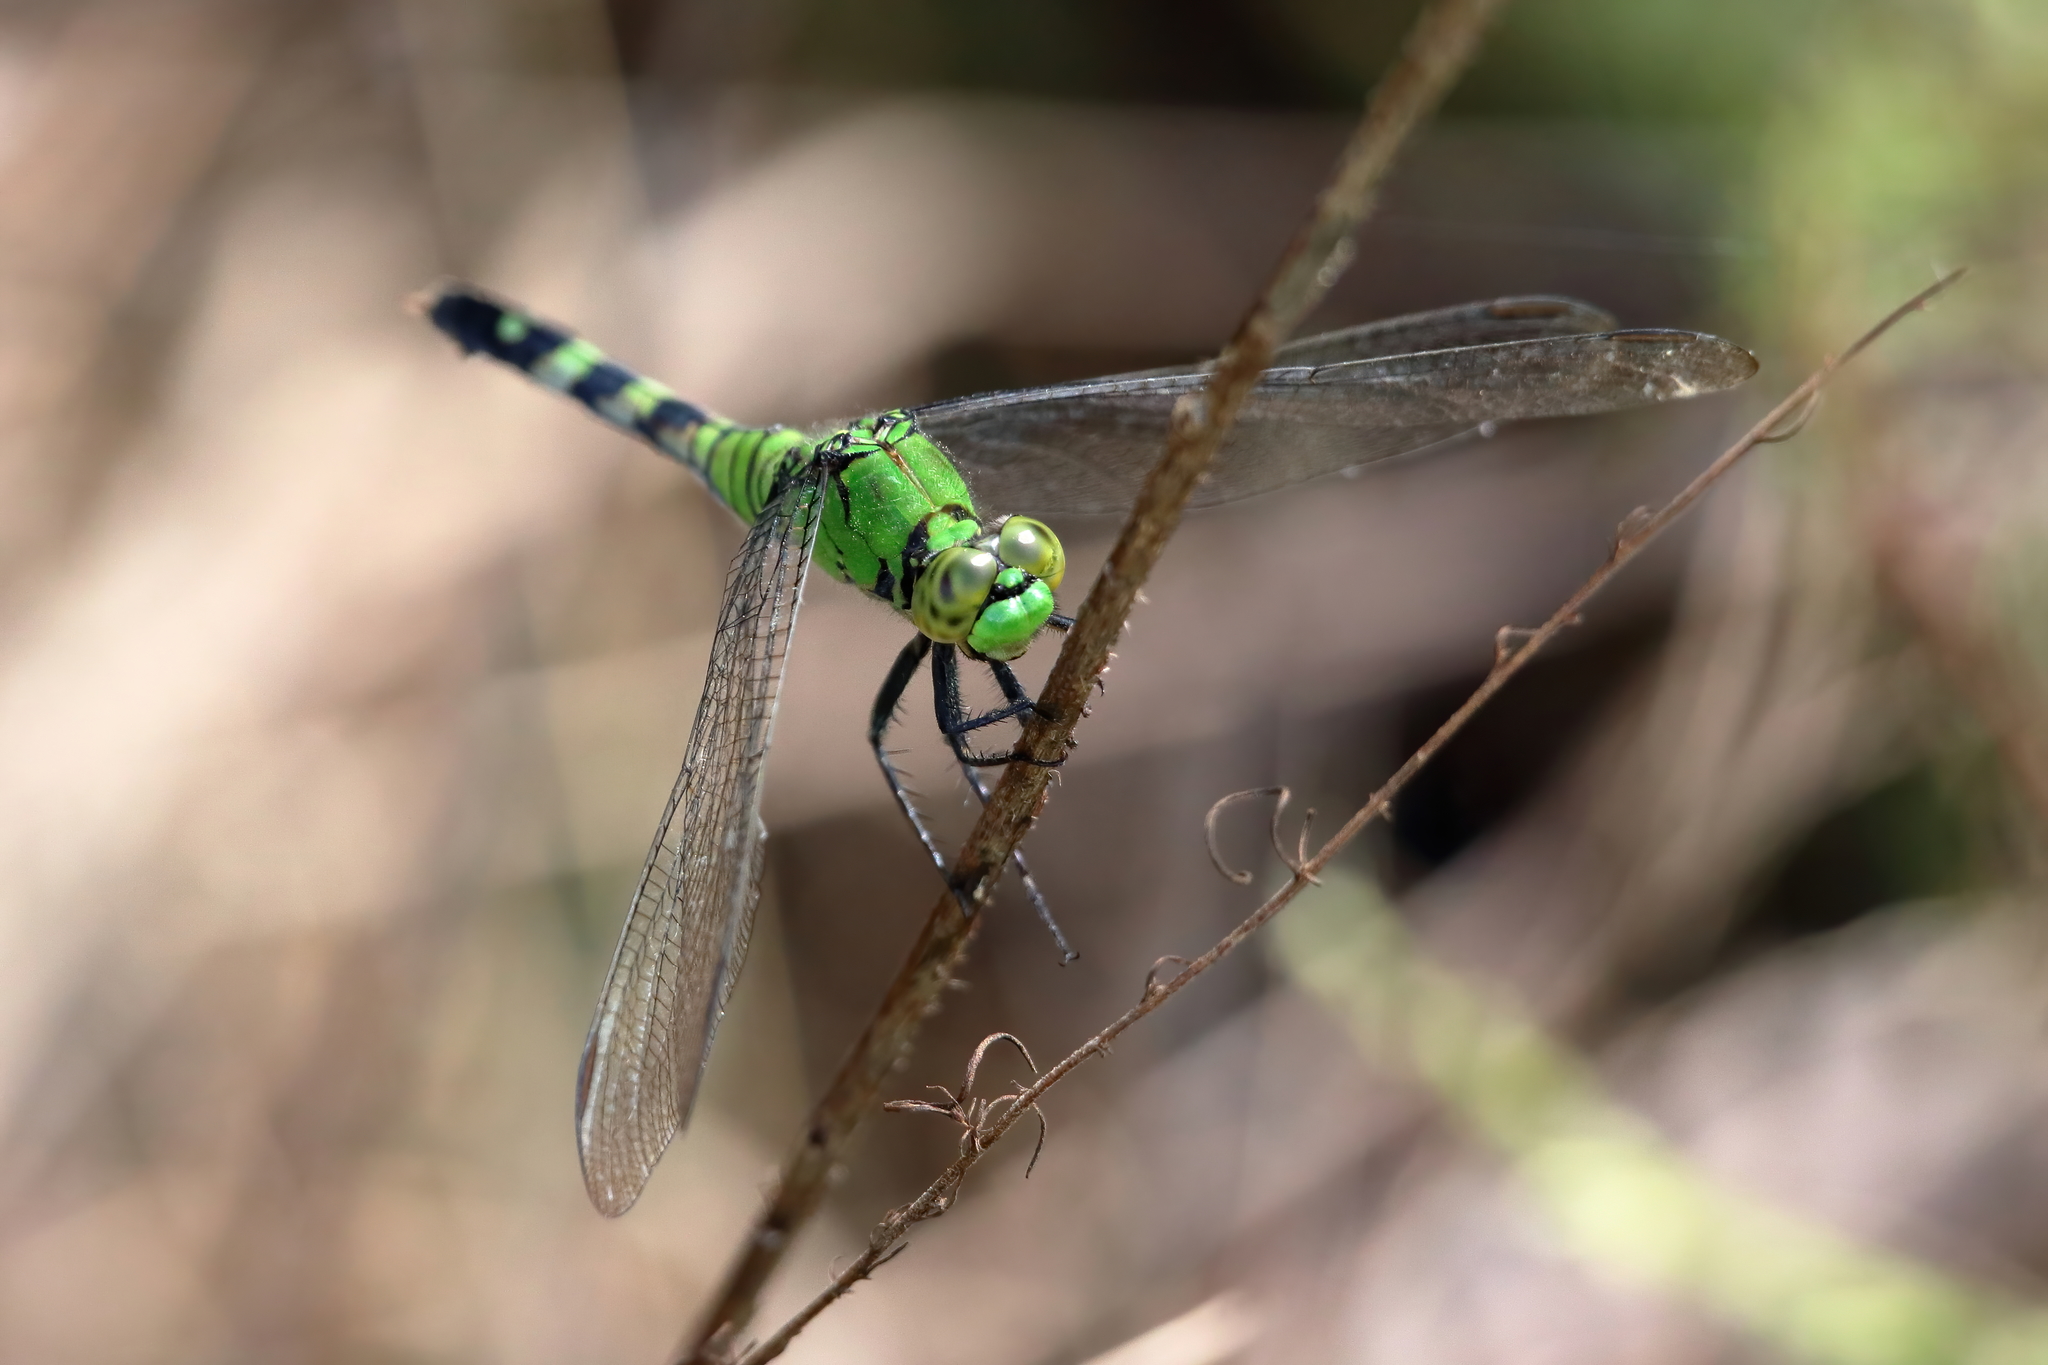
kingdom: Animalia
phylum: Arthropoda
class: Insecta
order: Odonata
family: Libellulidae
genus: Erythemis
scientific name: Erythemis simplicicollis
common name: Eastern pondhawk
